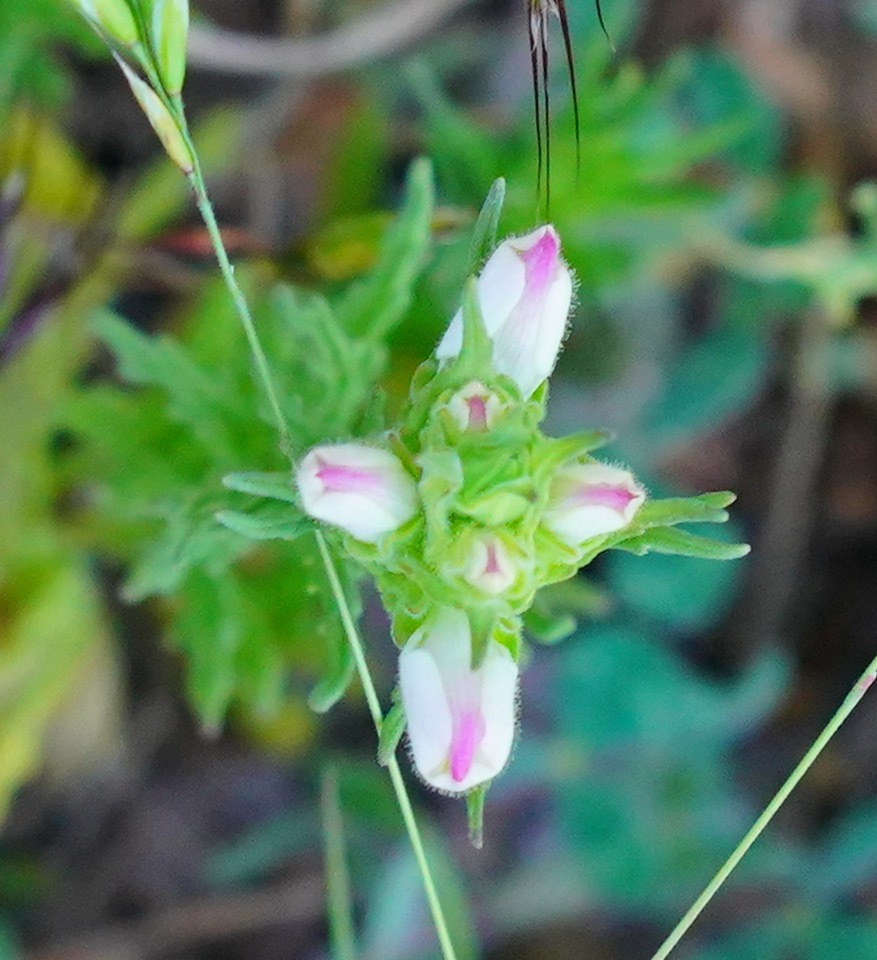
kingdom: Plantae
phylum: Tracheophyta
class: Magnoliopsida
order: Lamiales
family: Orobanchaceae
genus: Bellardia
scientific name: Bellardia trixago
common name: Mediterranean lineseed
